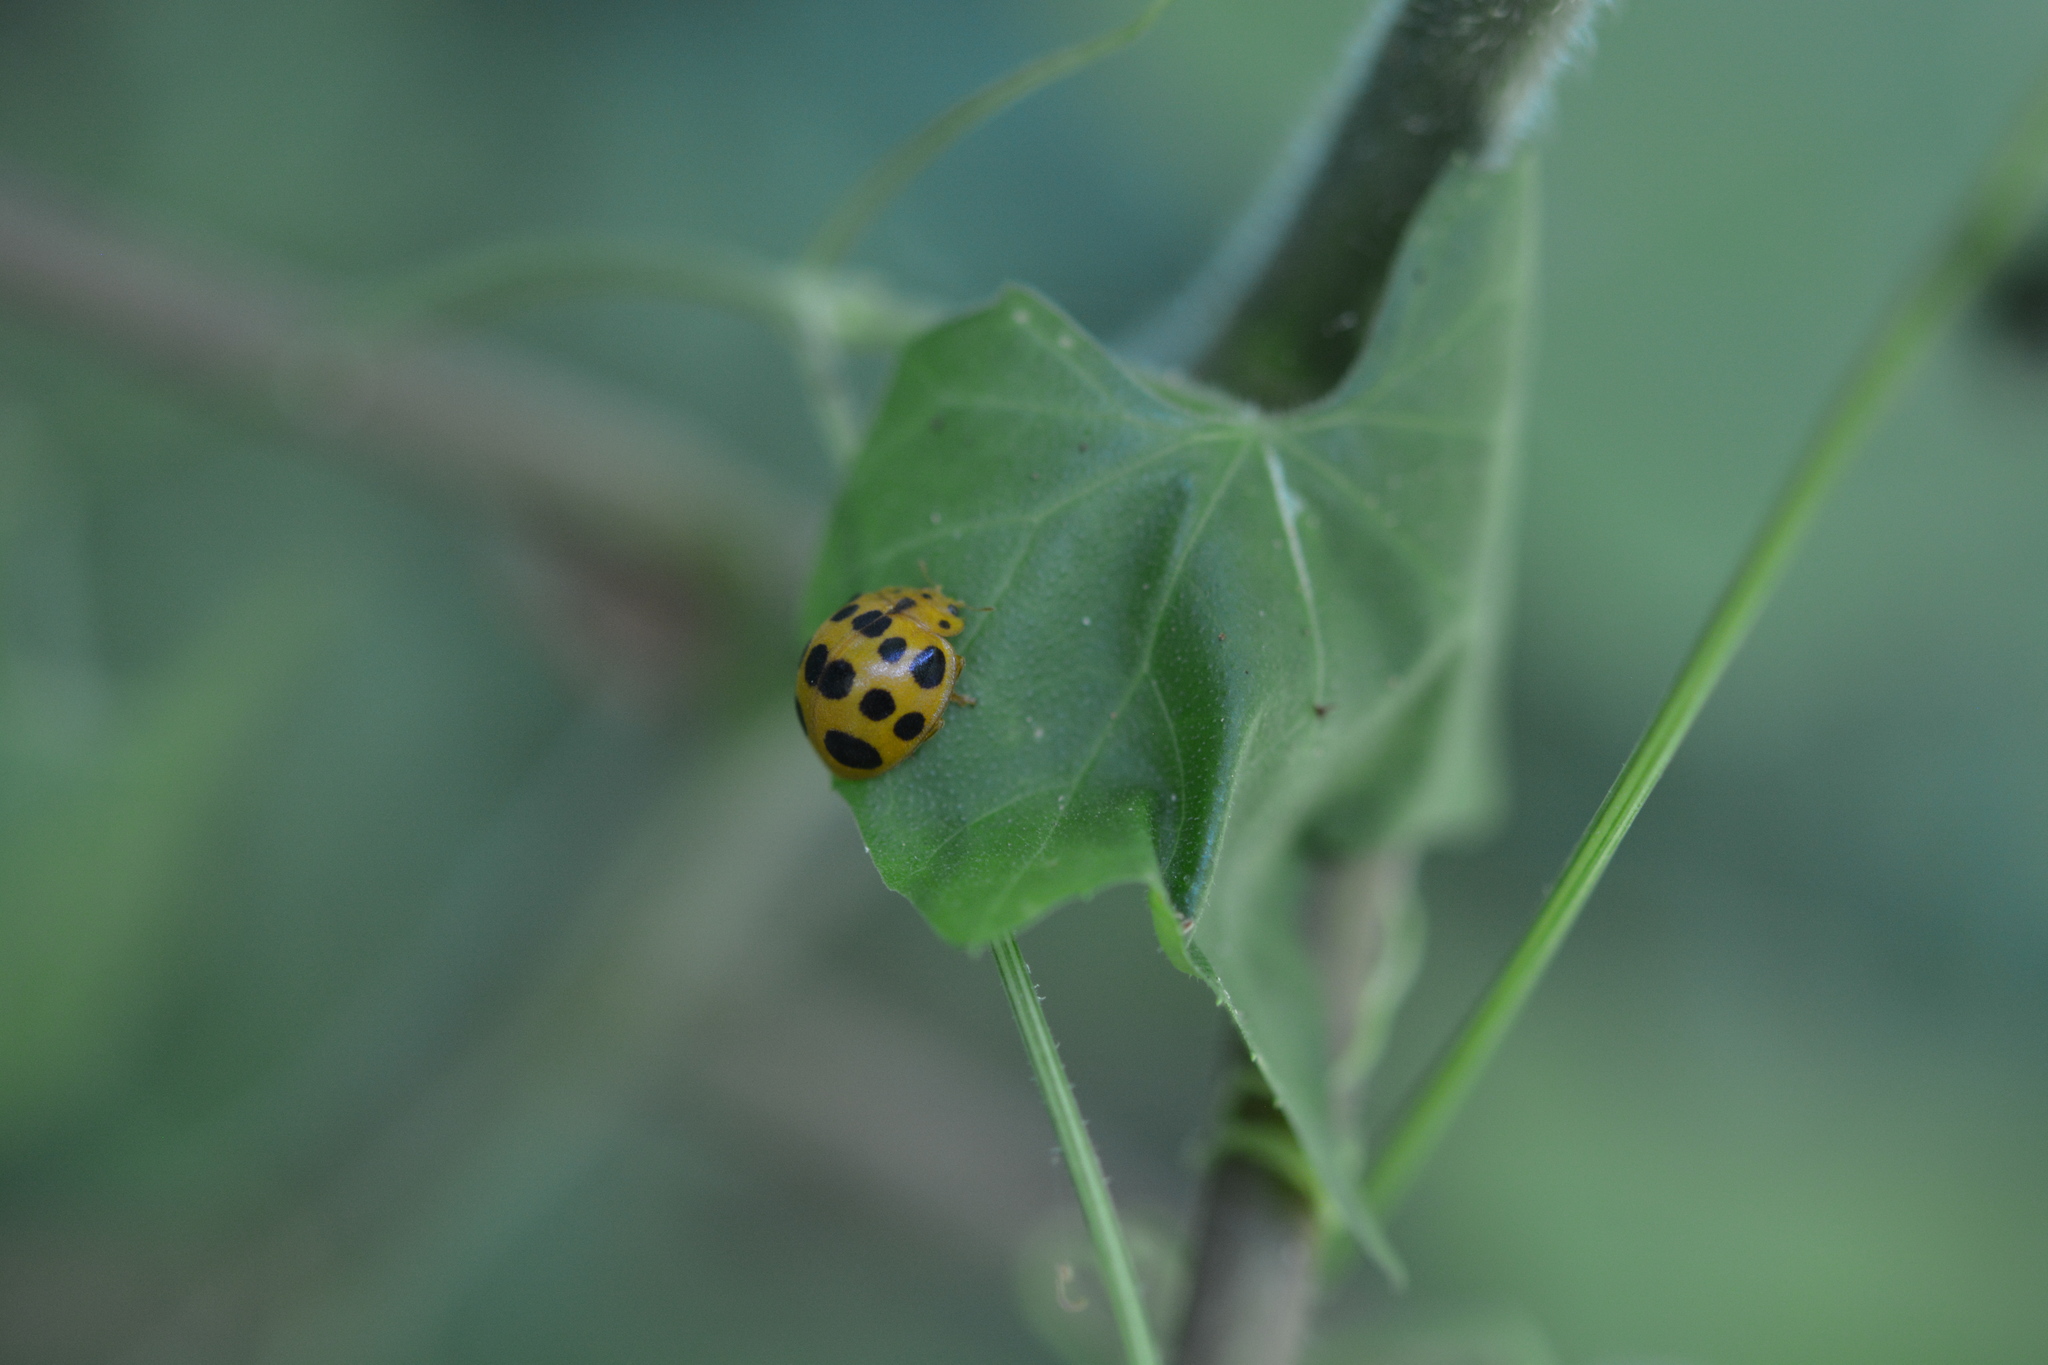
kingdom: Animalia
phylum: Arthropoda
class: Insecta
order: Coleoptera
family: Coccinellidae
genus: Epilachna
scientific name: Epilachna borealis
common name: Squash beetle
